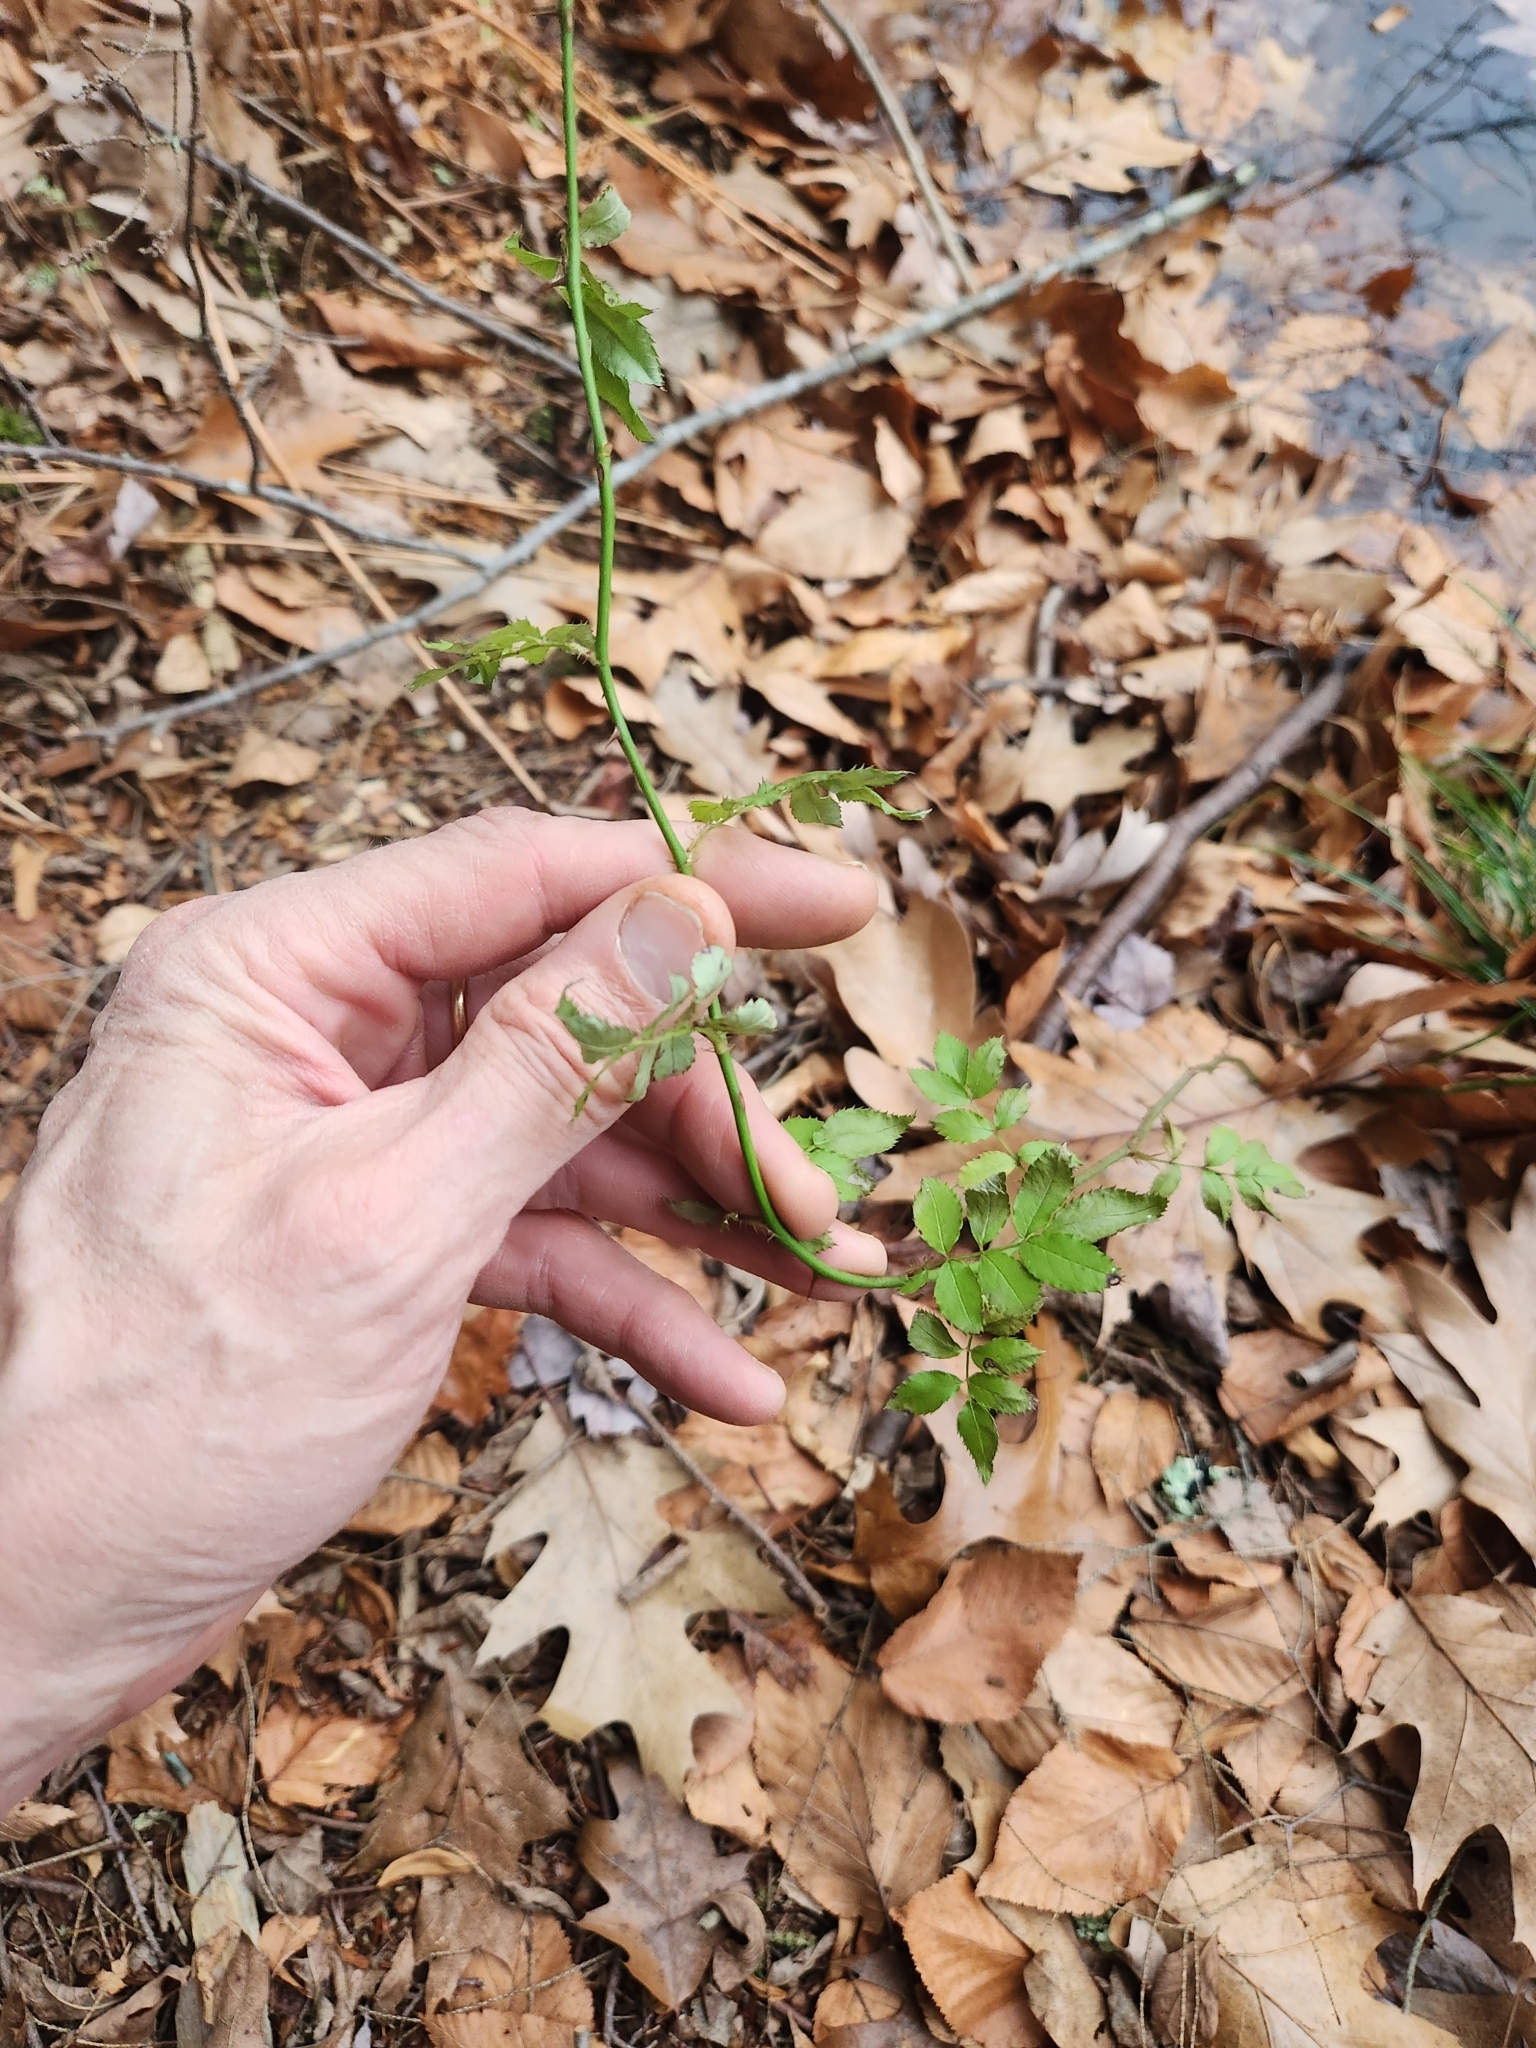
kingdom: Plantae
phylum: Tracheophyta
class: Magnoliopsida
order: Rosales
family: Rosaceae
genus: Rosa
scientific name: Rosa multiflora
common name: Multiflora rose
